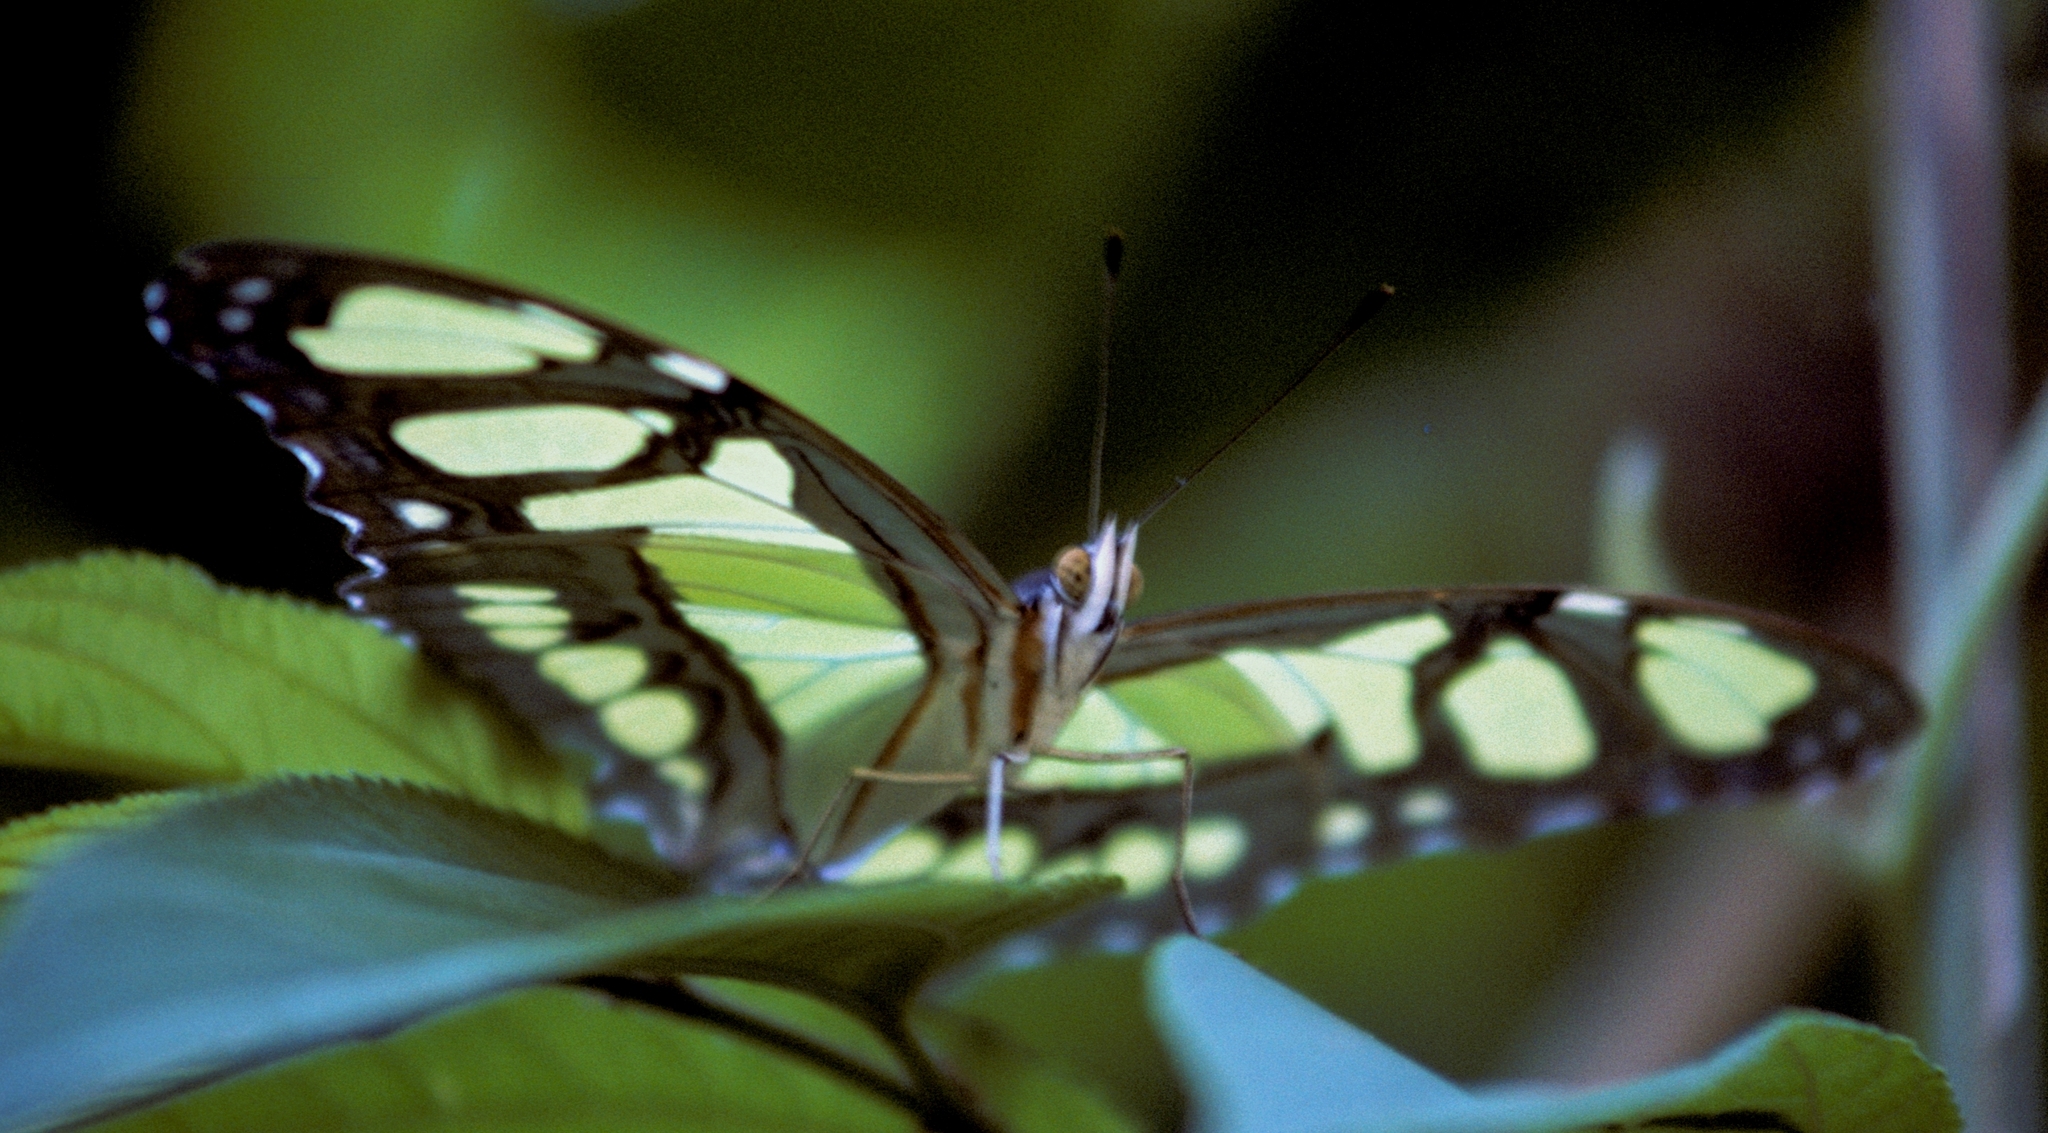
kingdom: Animalia
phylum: Arthropoda
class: Insecta
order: Lepidoptera
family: Nymphalidae
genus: Siproeta
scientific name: Siproeta stelenes
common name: Malachite
